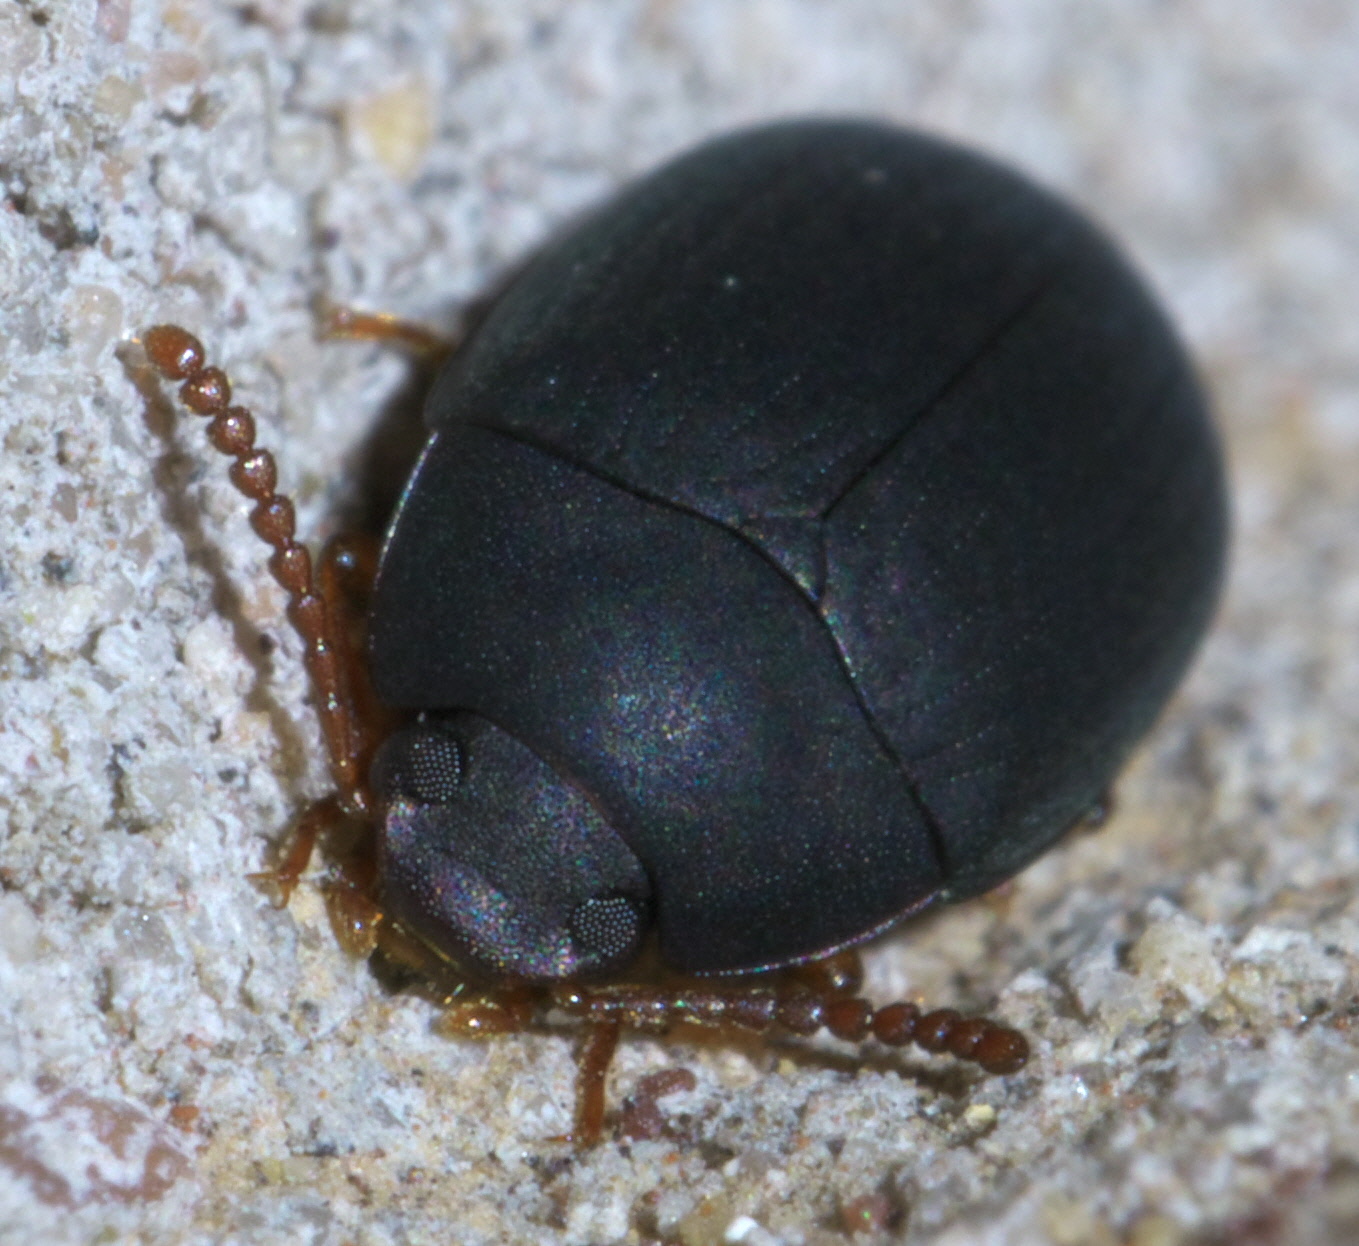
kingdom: Animalia
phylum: Arthropoda
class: Insecta
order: Coleoptera
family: Tenebrionidae
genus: Platydema
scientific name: Platydema ruficornis
